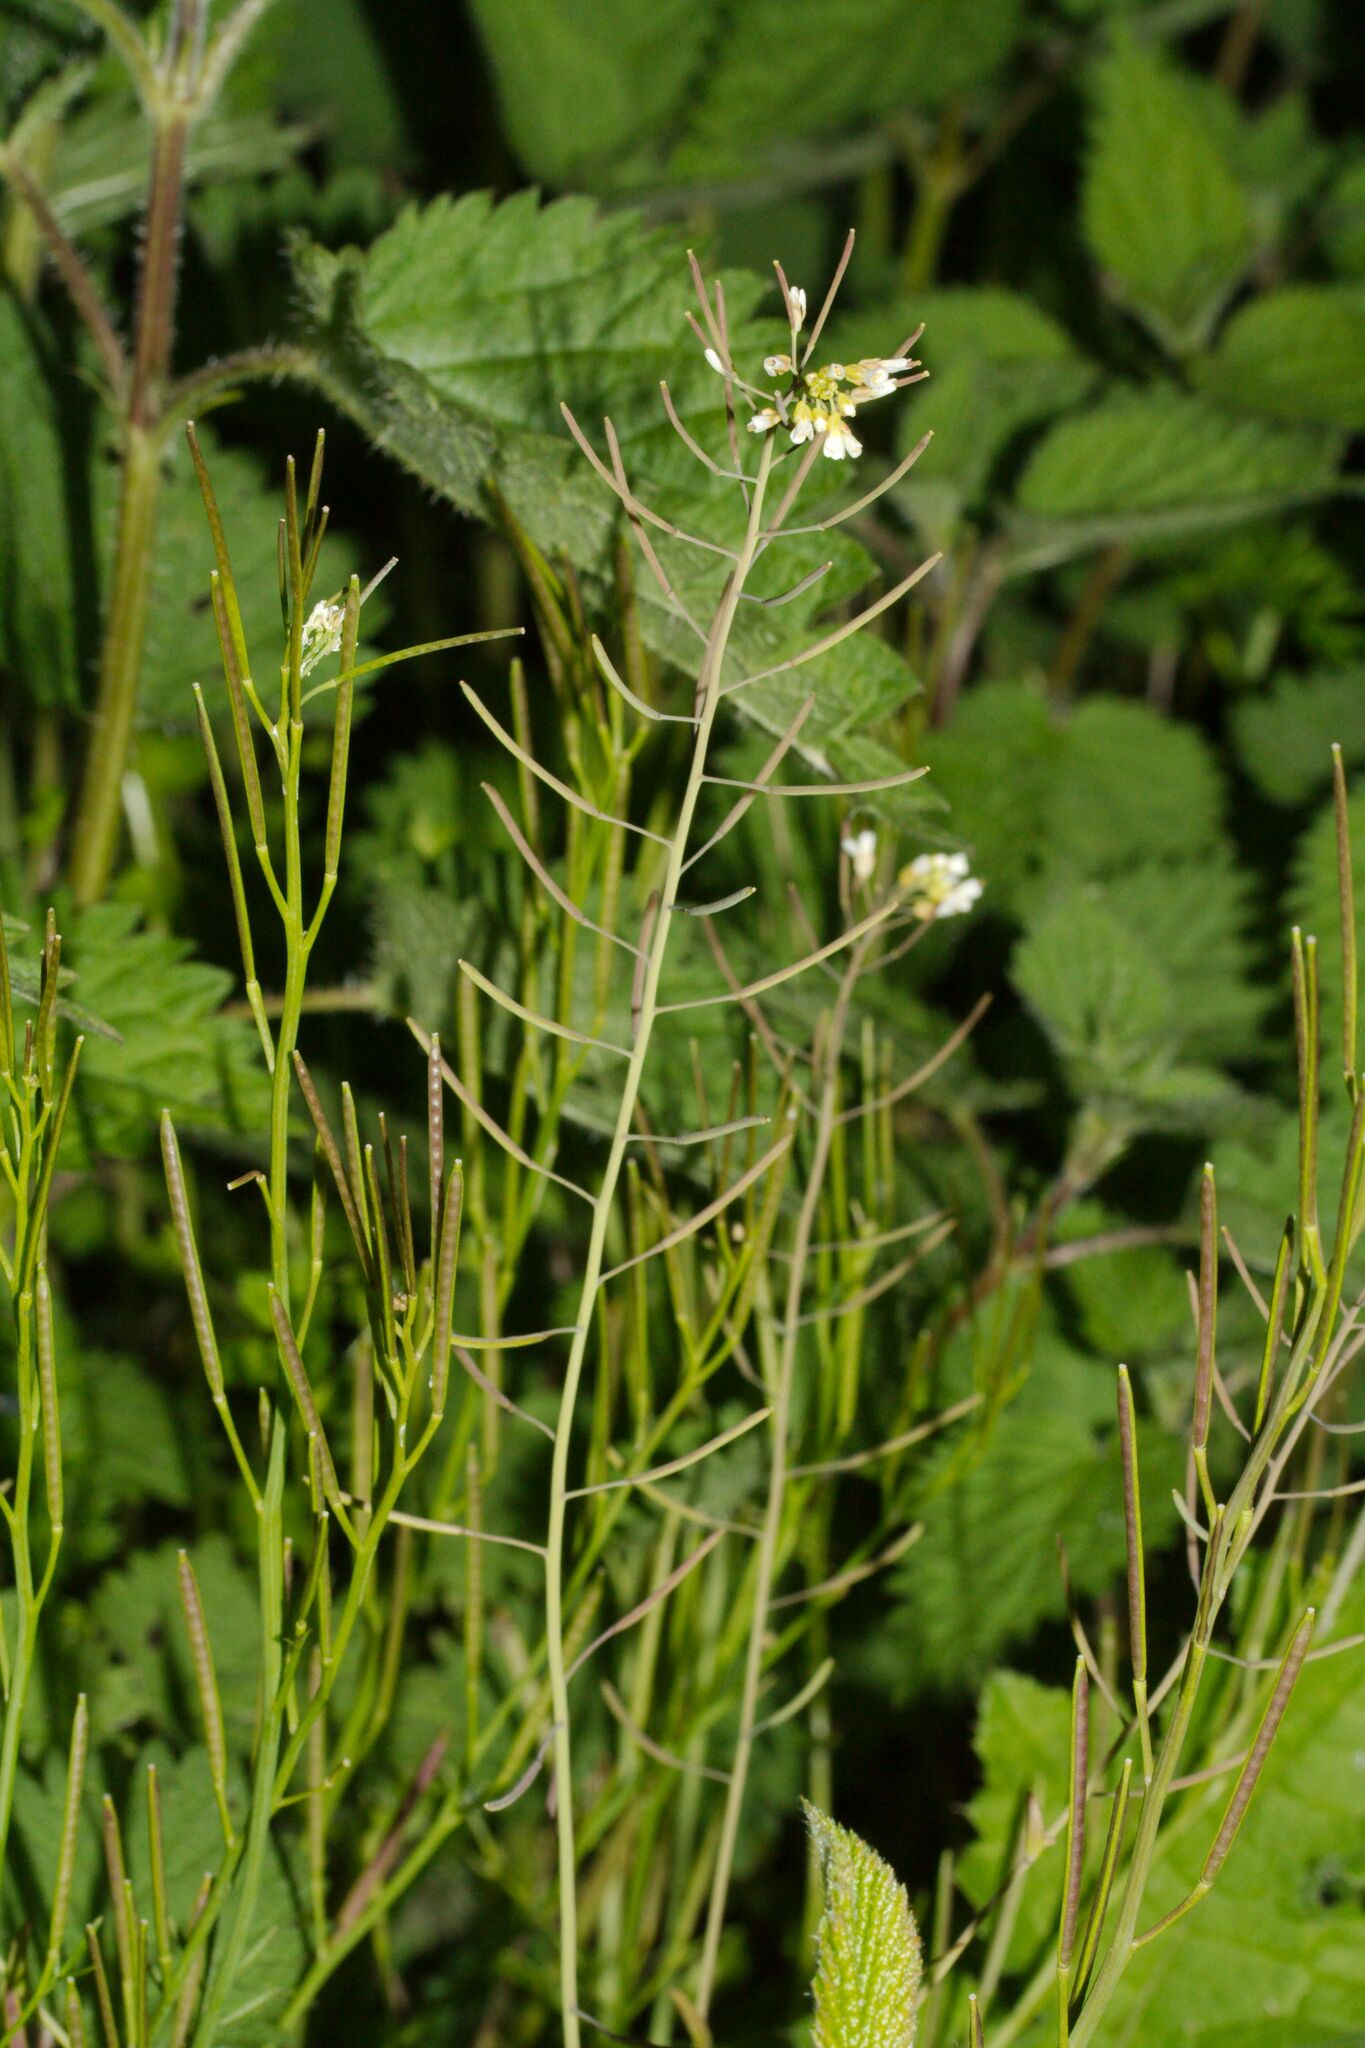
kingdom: Plantae
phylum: Tracheophyta
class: Magnoliopsida
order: Brassicales
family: Brassicaceae
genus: Arabidopsis
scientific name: Arabidopsis thaliana
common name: Thale cress
